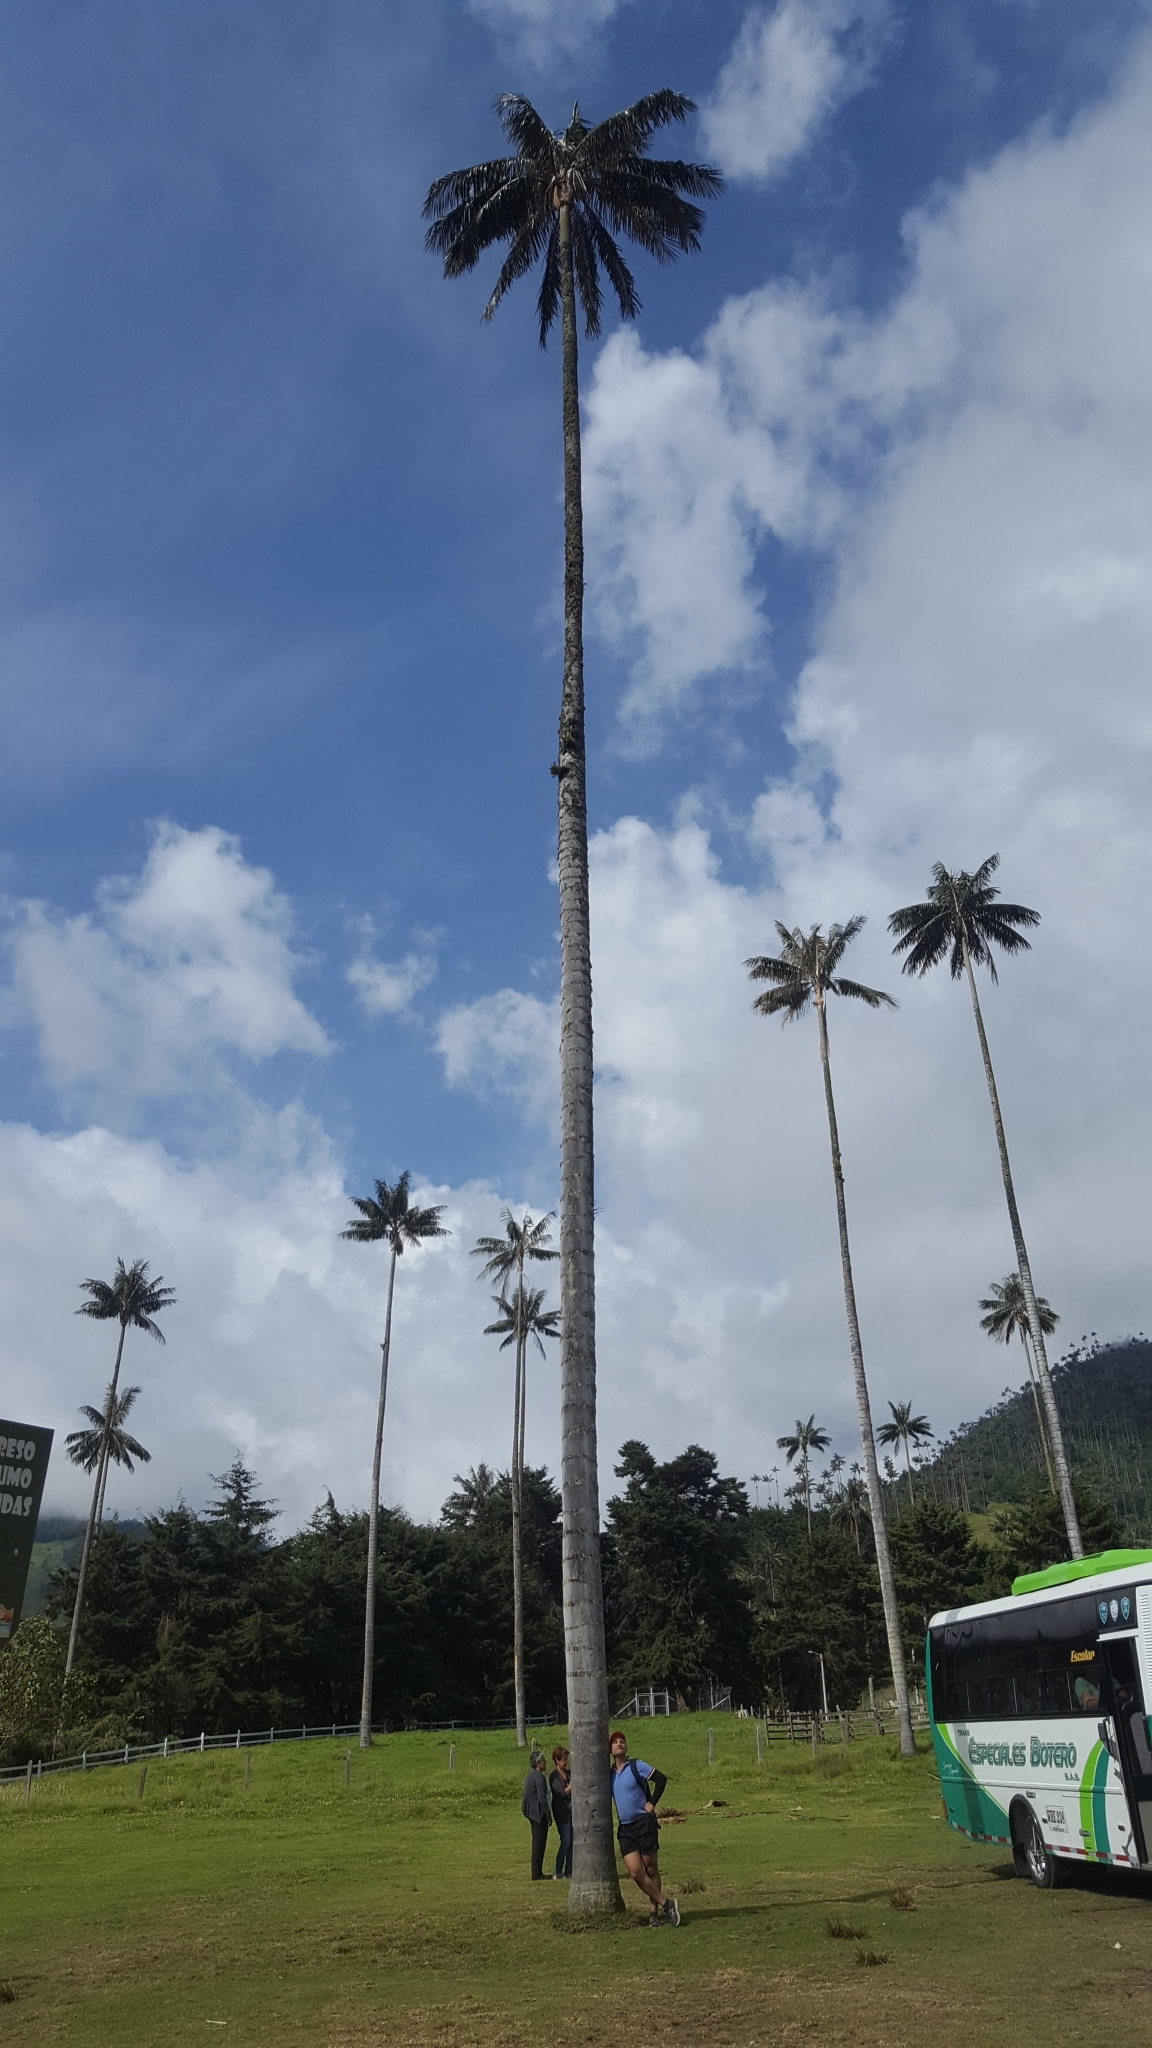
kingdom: Plantae
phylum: Tracheophyta
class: Liliopsida
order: Arecales
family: Arecaceae
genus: Ceroxylon
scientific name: Ceroxylon quindiuense
